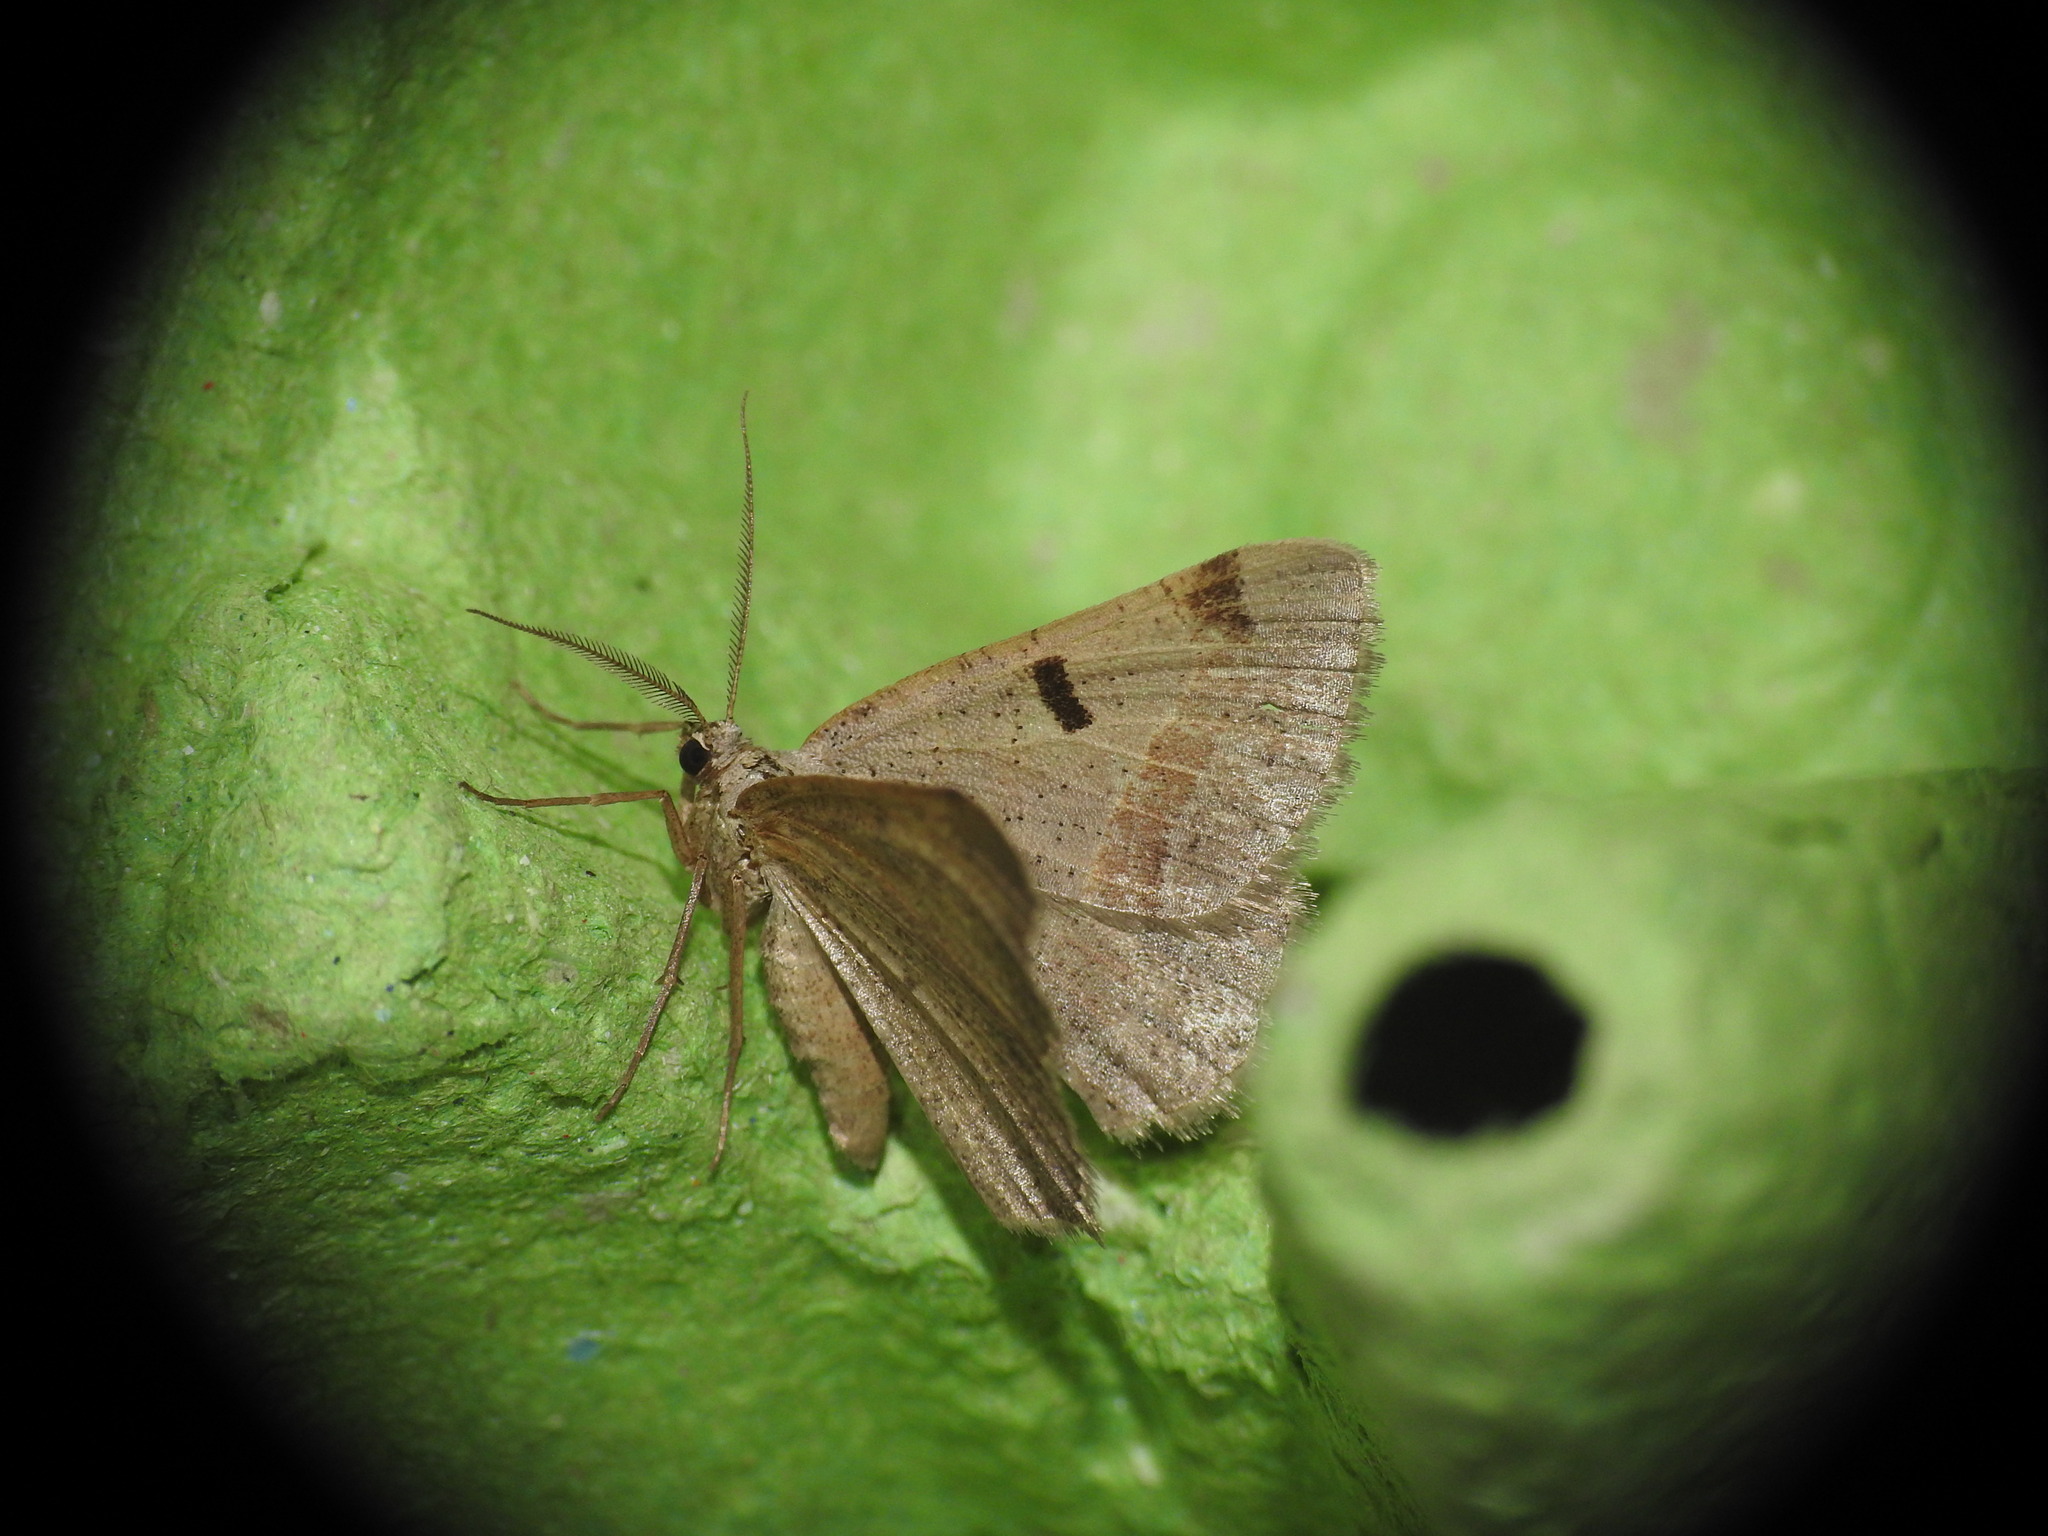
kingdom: Animalia
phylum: Arthropoda
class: Insecta
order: Lepidoptera
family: Geometridae
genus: Itame
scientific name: Itame vincularia
